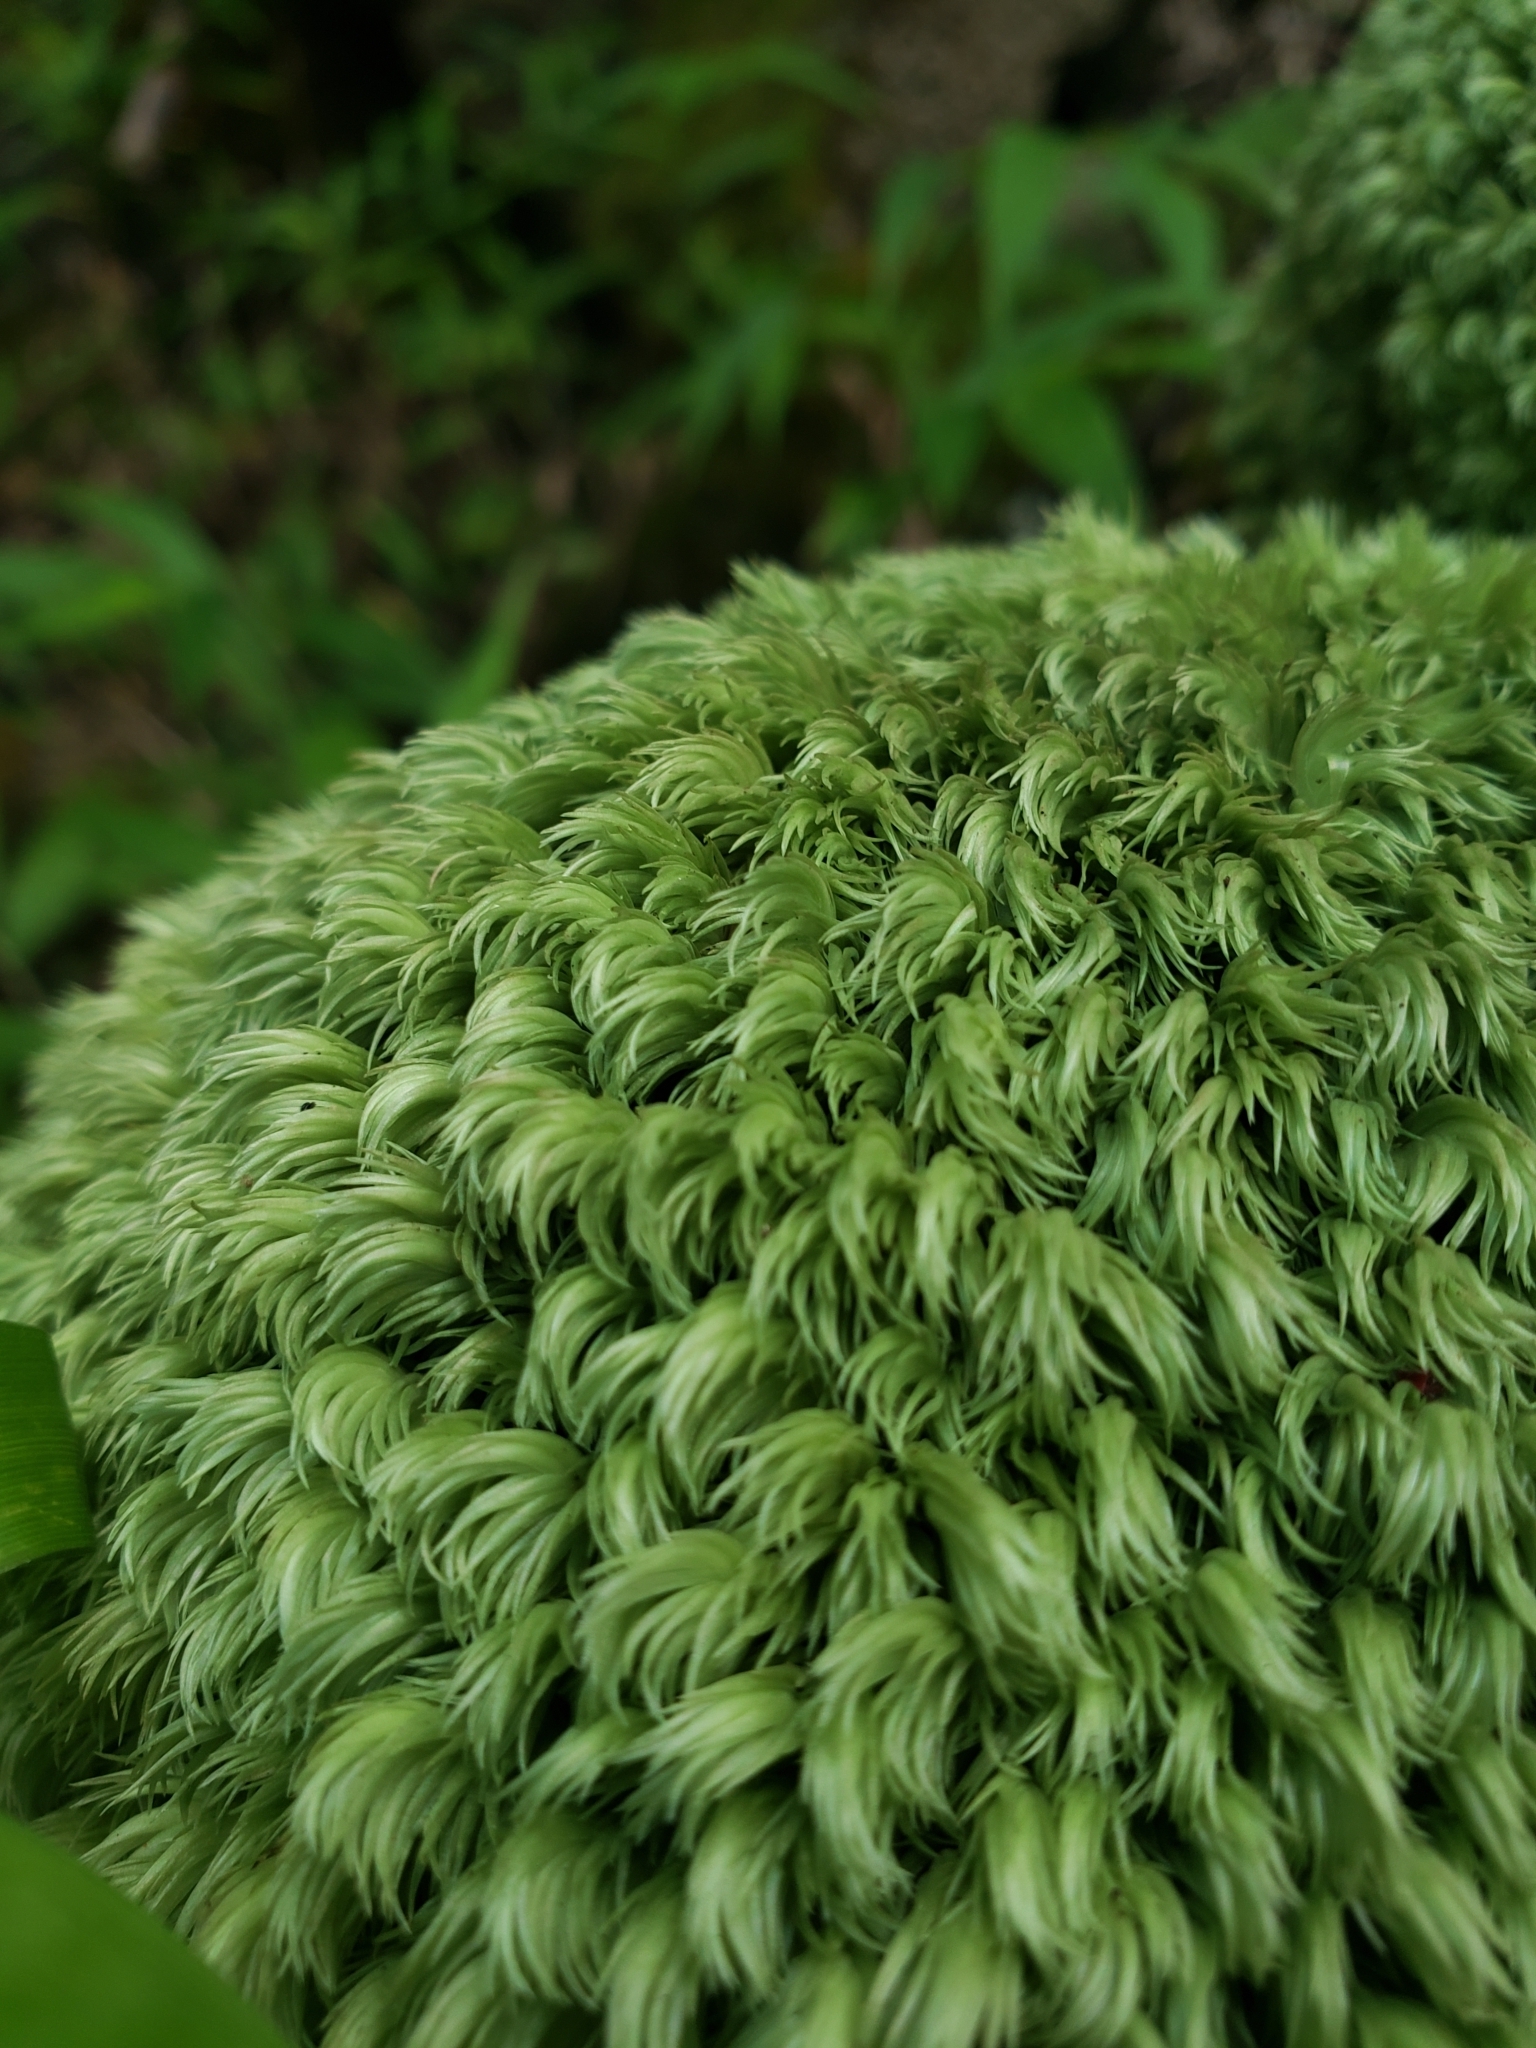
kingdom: Plantae
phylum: Bryophyta
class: Bryopsida
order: Dicranales
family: Leucobryaceae
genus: Leucobryum
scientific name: Leucobryum seemannii
